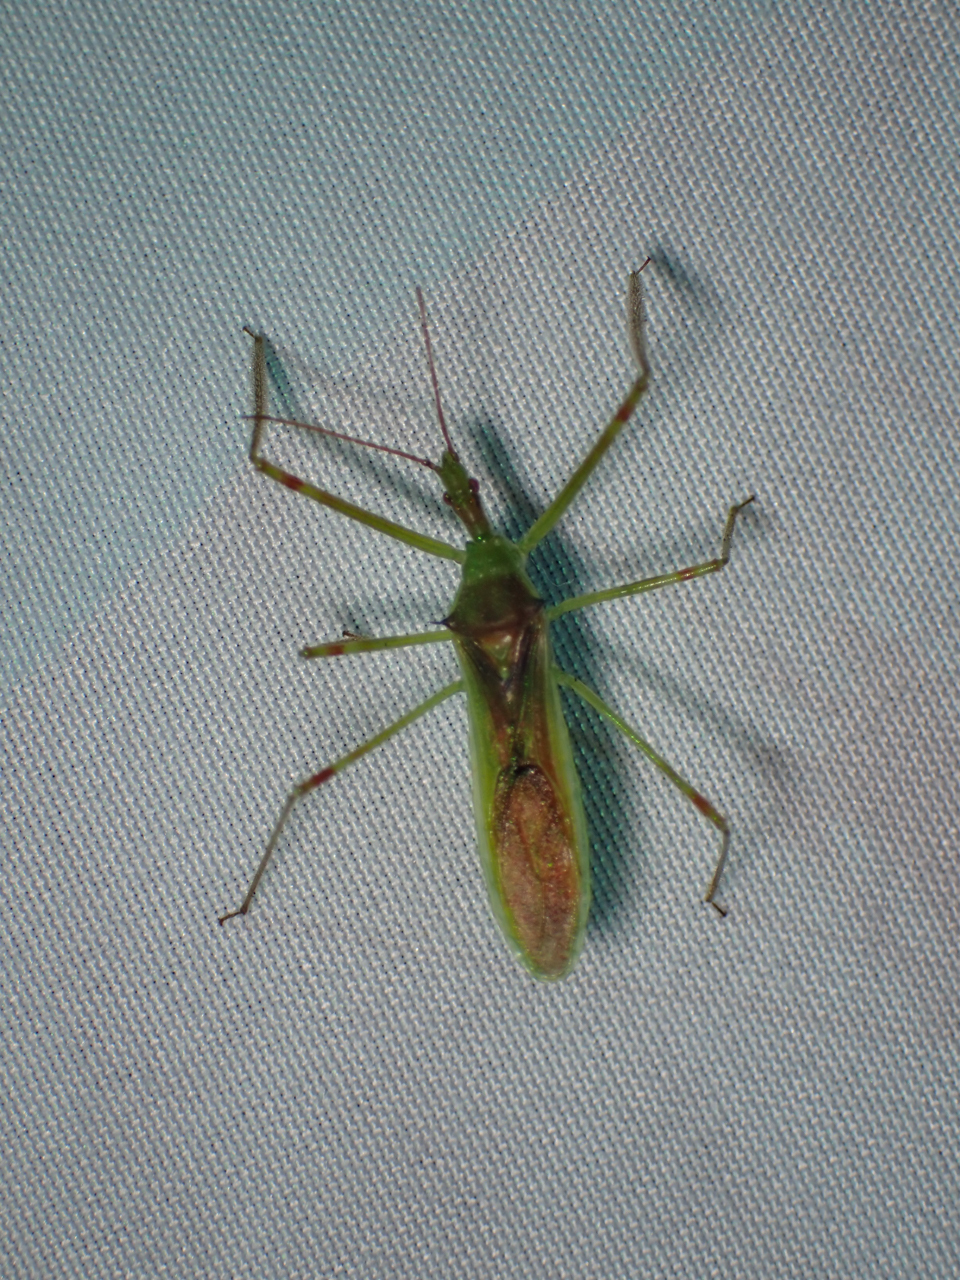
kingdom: Animalia
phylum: Arthropoda
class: Insecta
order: Hemiptera
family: Reduviidae
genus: Zelus
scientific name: Zelus luridus
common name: Pale green assassin bug
